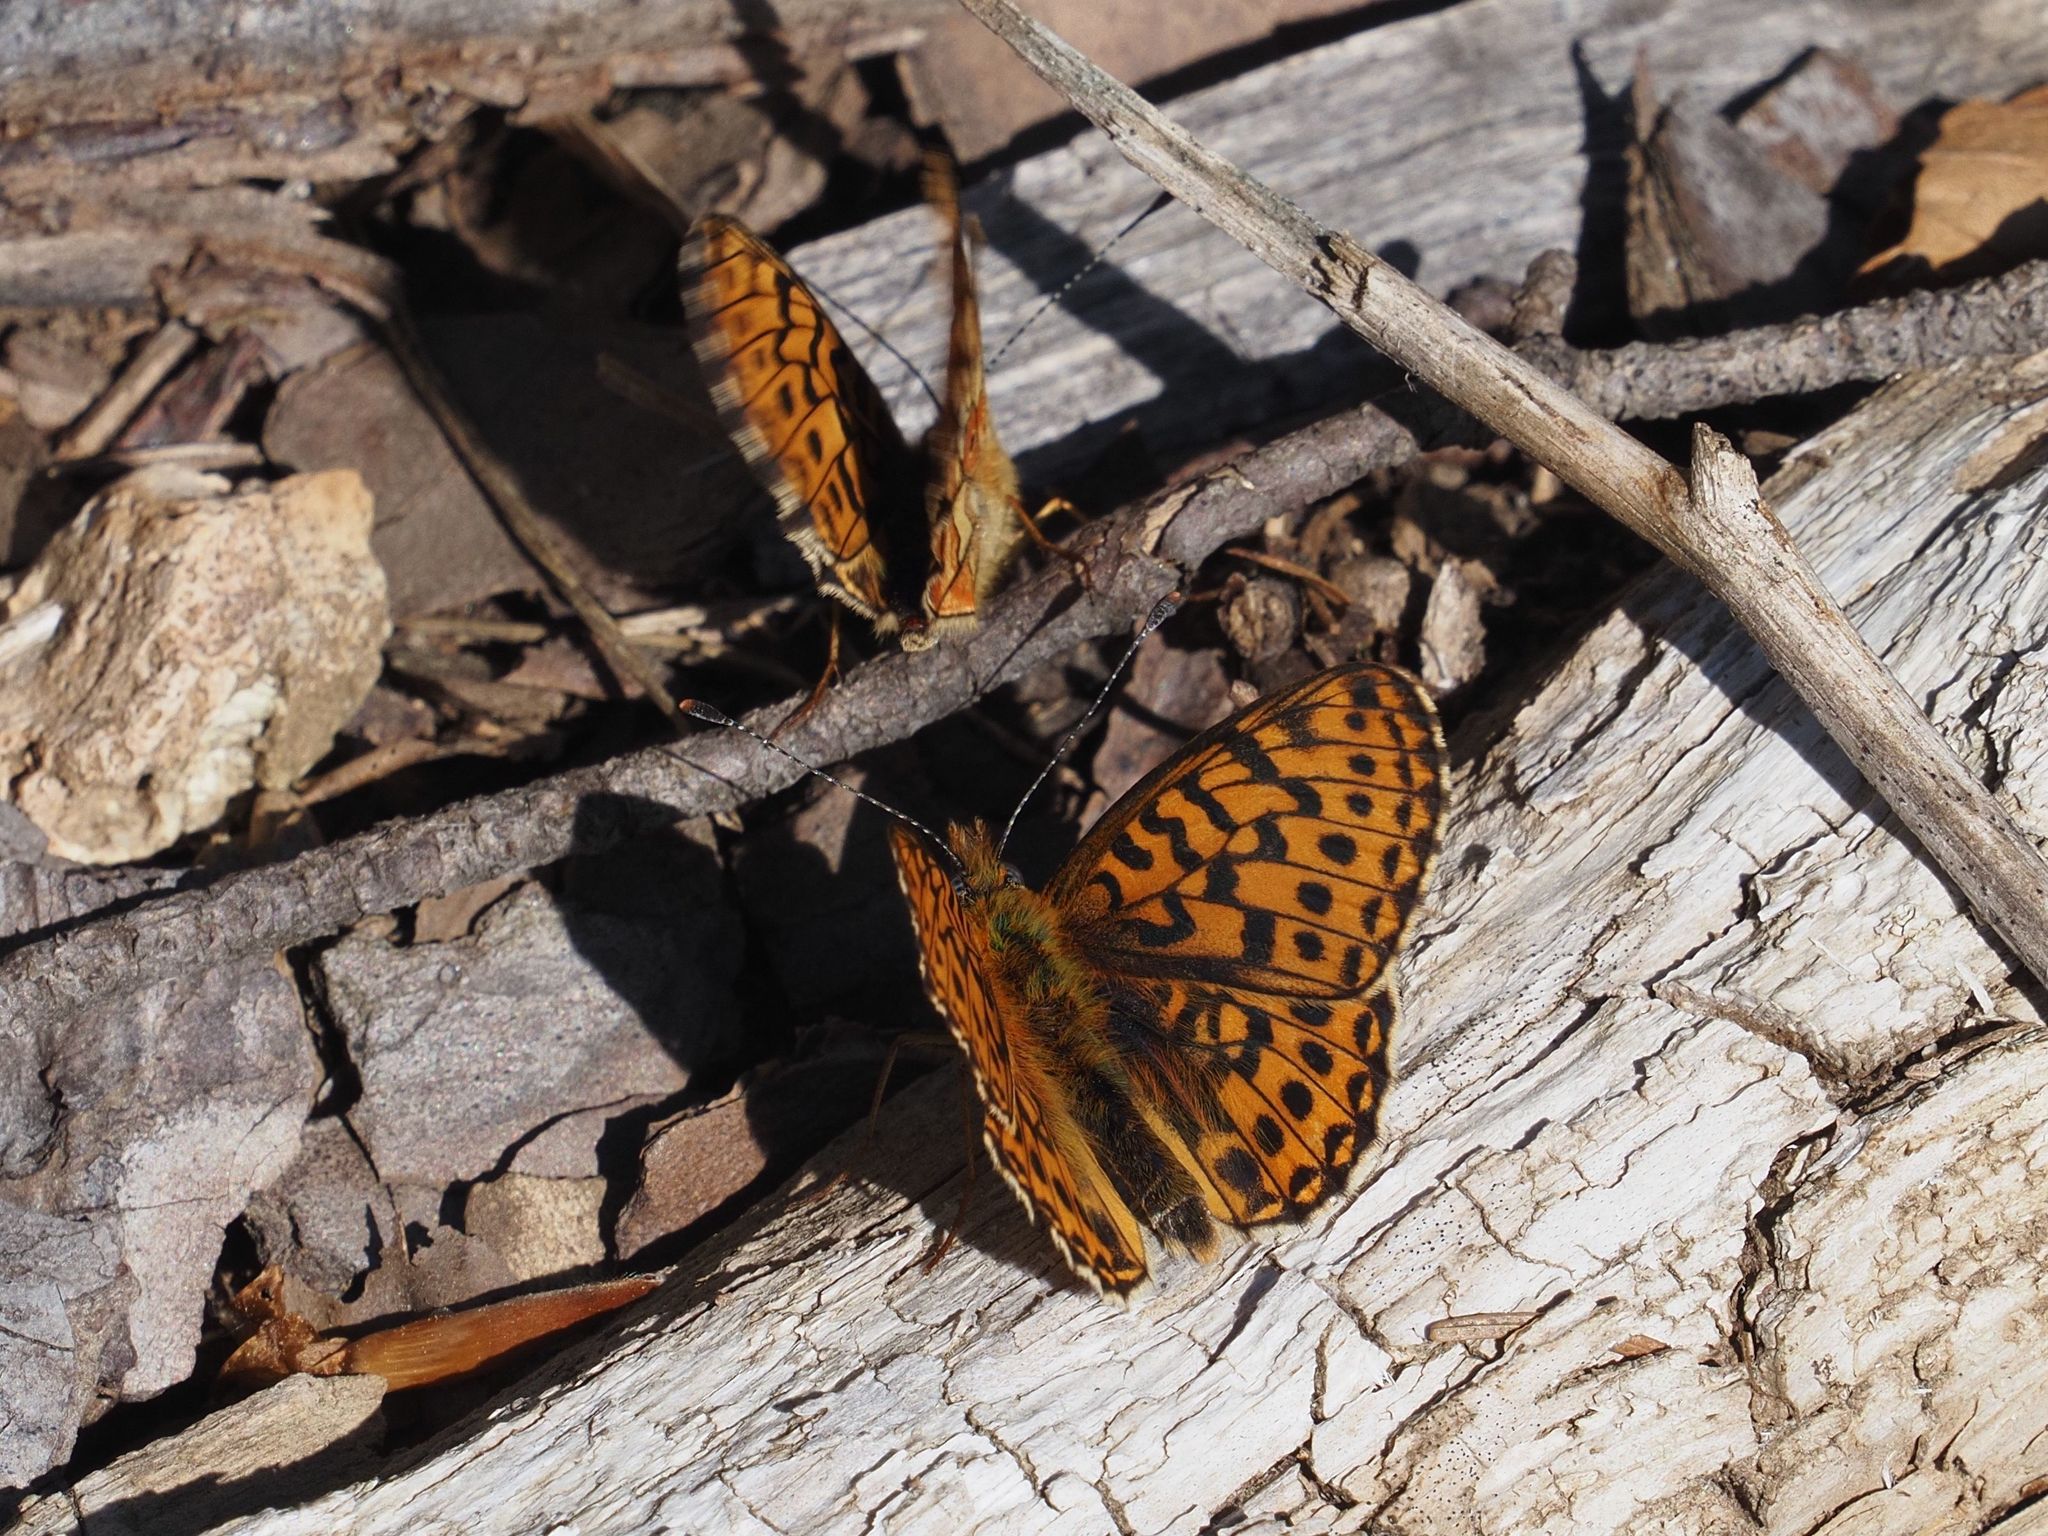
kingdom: Animalia
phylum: Arthropoda
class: Insecta
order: Lepidoptera
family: Nymphalidae
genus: Clossiana
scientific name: Clossiana euphrosyne
